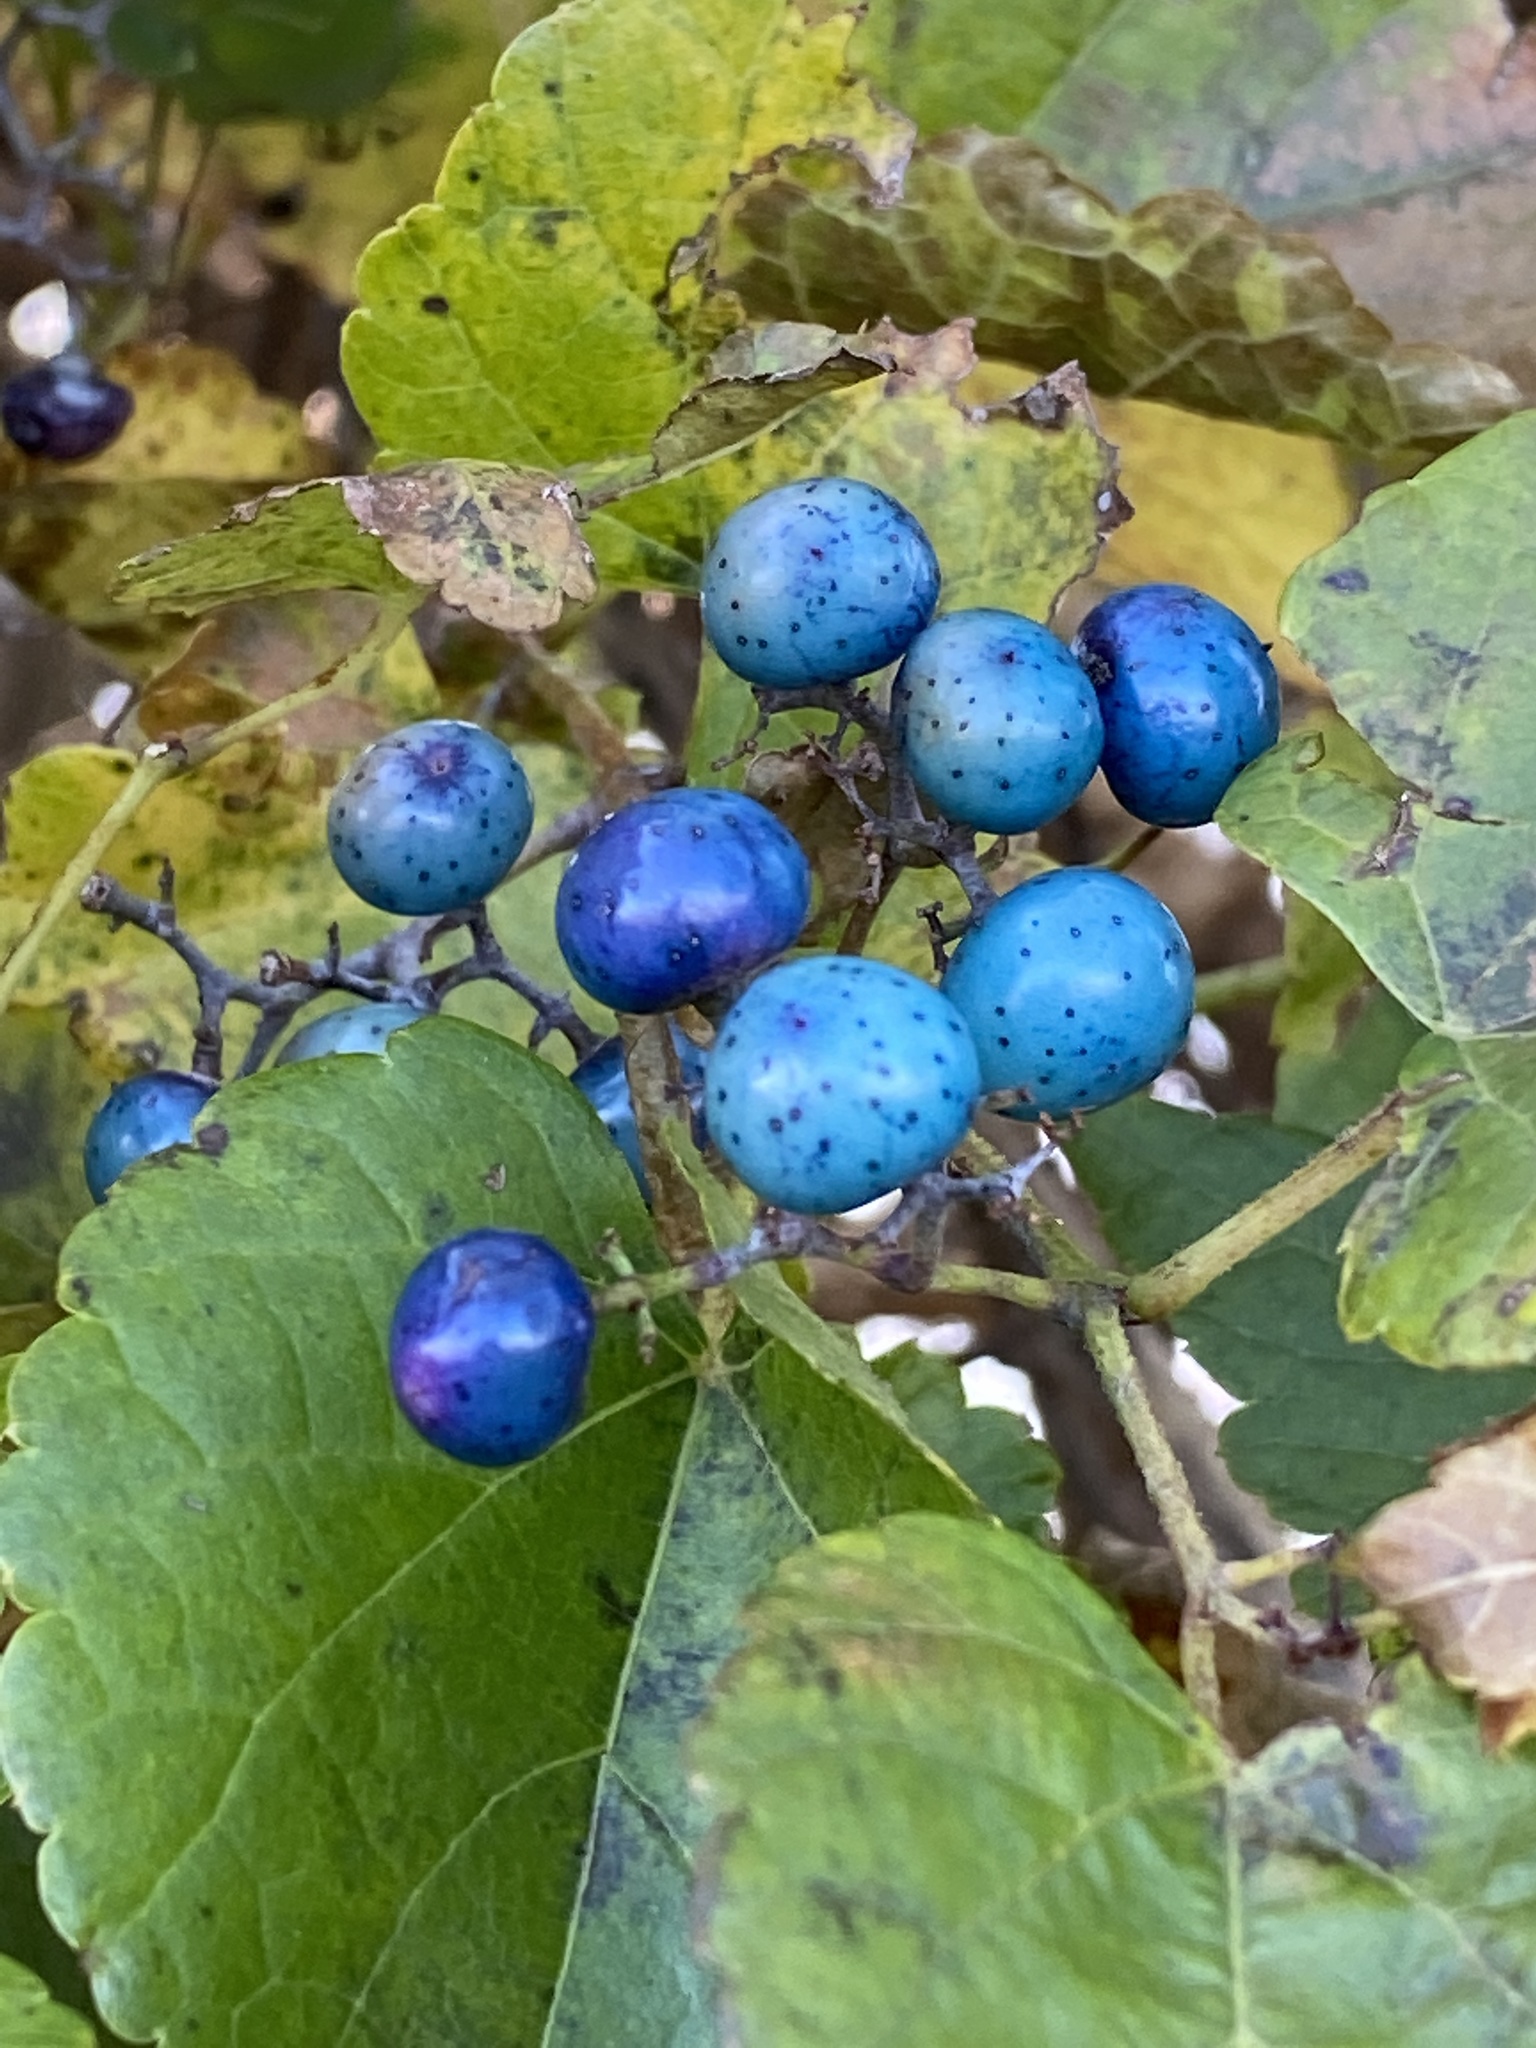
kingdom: Plantae
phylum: Tracheophyta
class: Magnoliopsida
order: Vitales
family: Vitaceae
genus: Ampelopsis
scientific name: Ampelopsis glandulosa
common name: Amur peppervine
